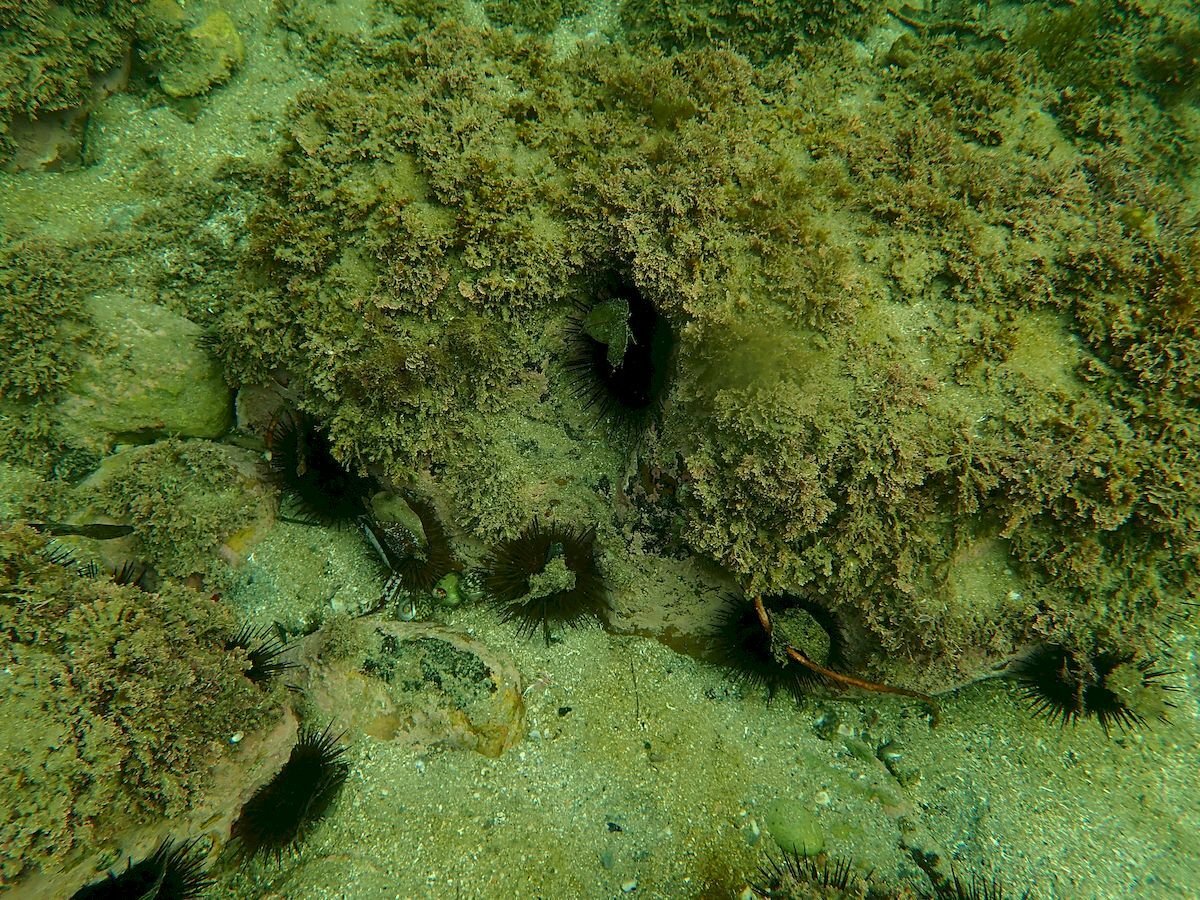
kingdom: Animalia
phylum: Echinodermata
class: Echinoidea
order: Camarodonta
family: Echinometridae
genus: Heliocidaris
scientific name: Heliocidaris erythrogramma
